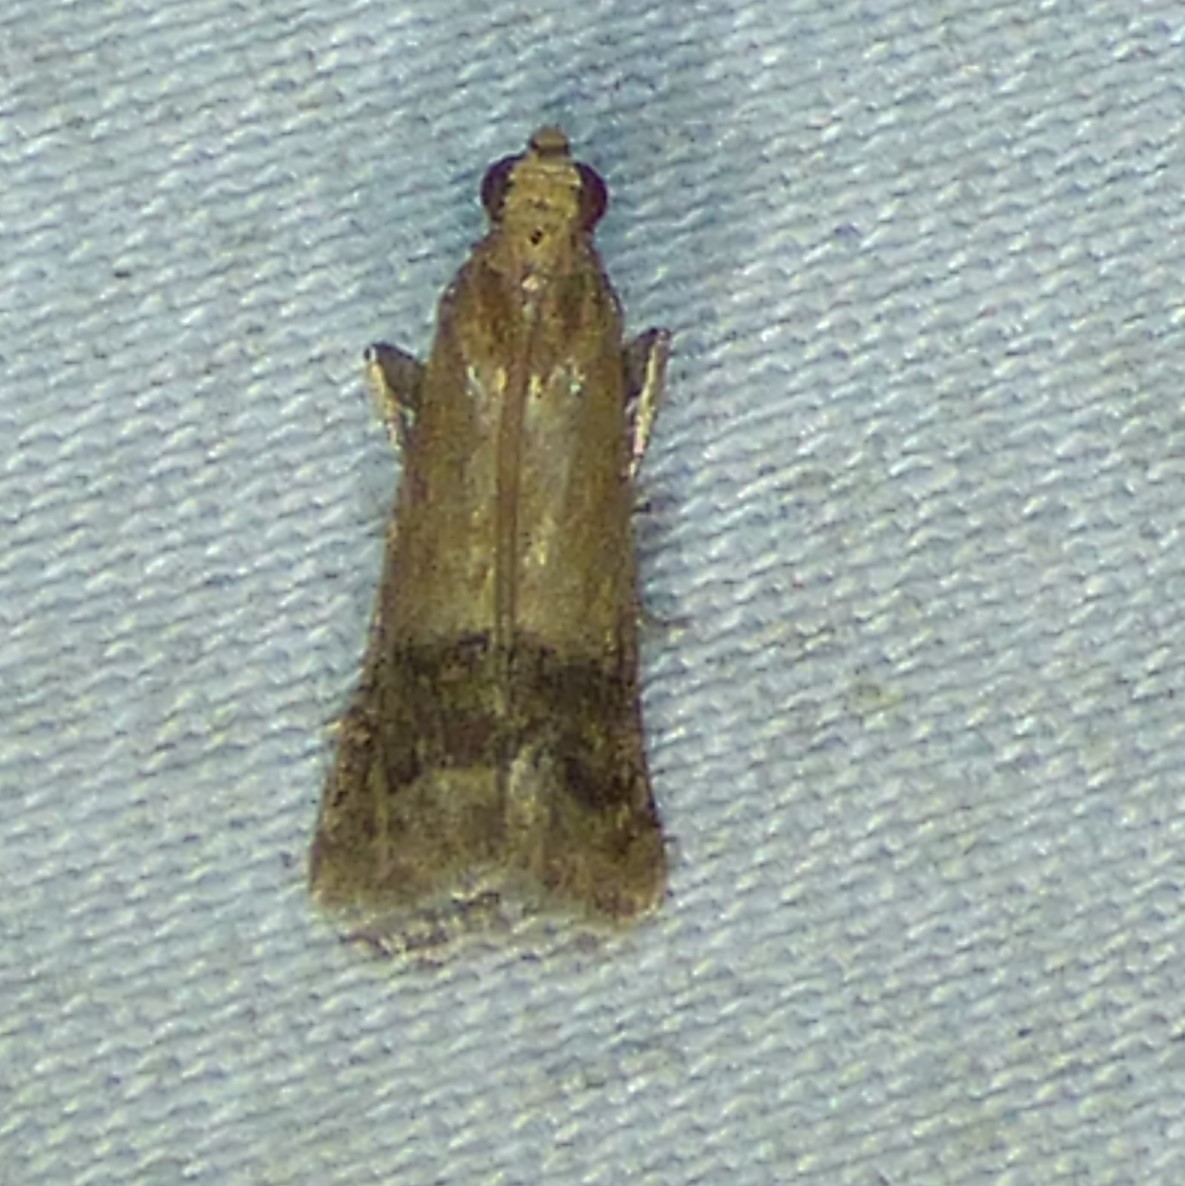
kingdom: Animalia
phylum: Arthropoda
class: Insecta
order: Lepidoptera
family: Pyralidae
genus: Eulogia
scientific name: Eulogia ochrifrontella
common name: Broad-banded eulogia moth
